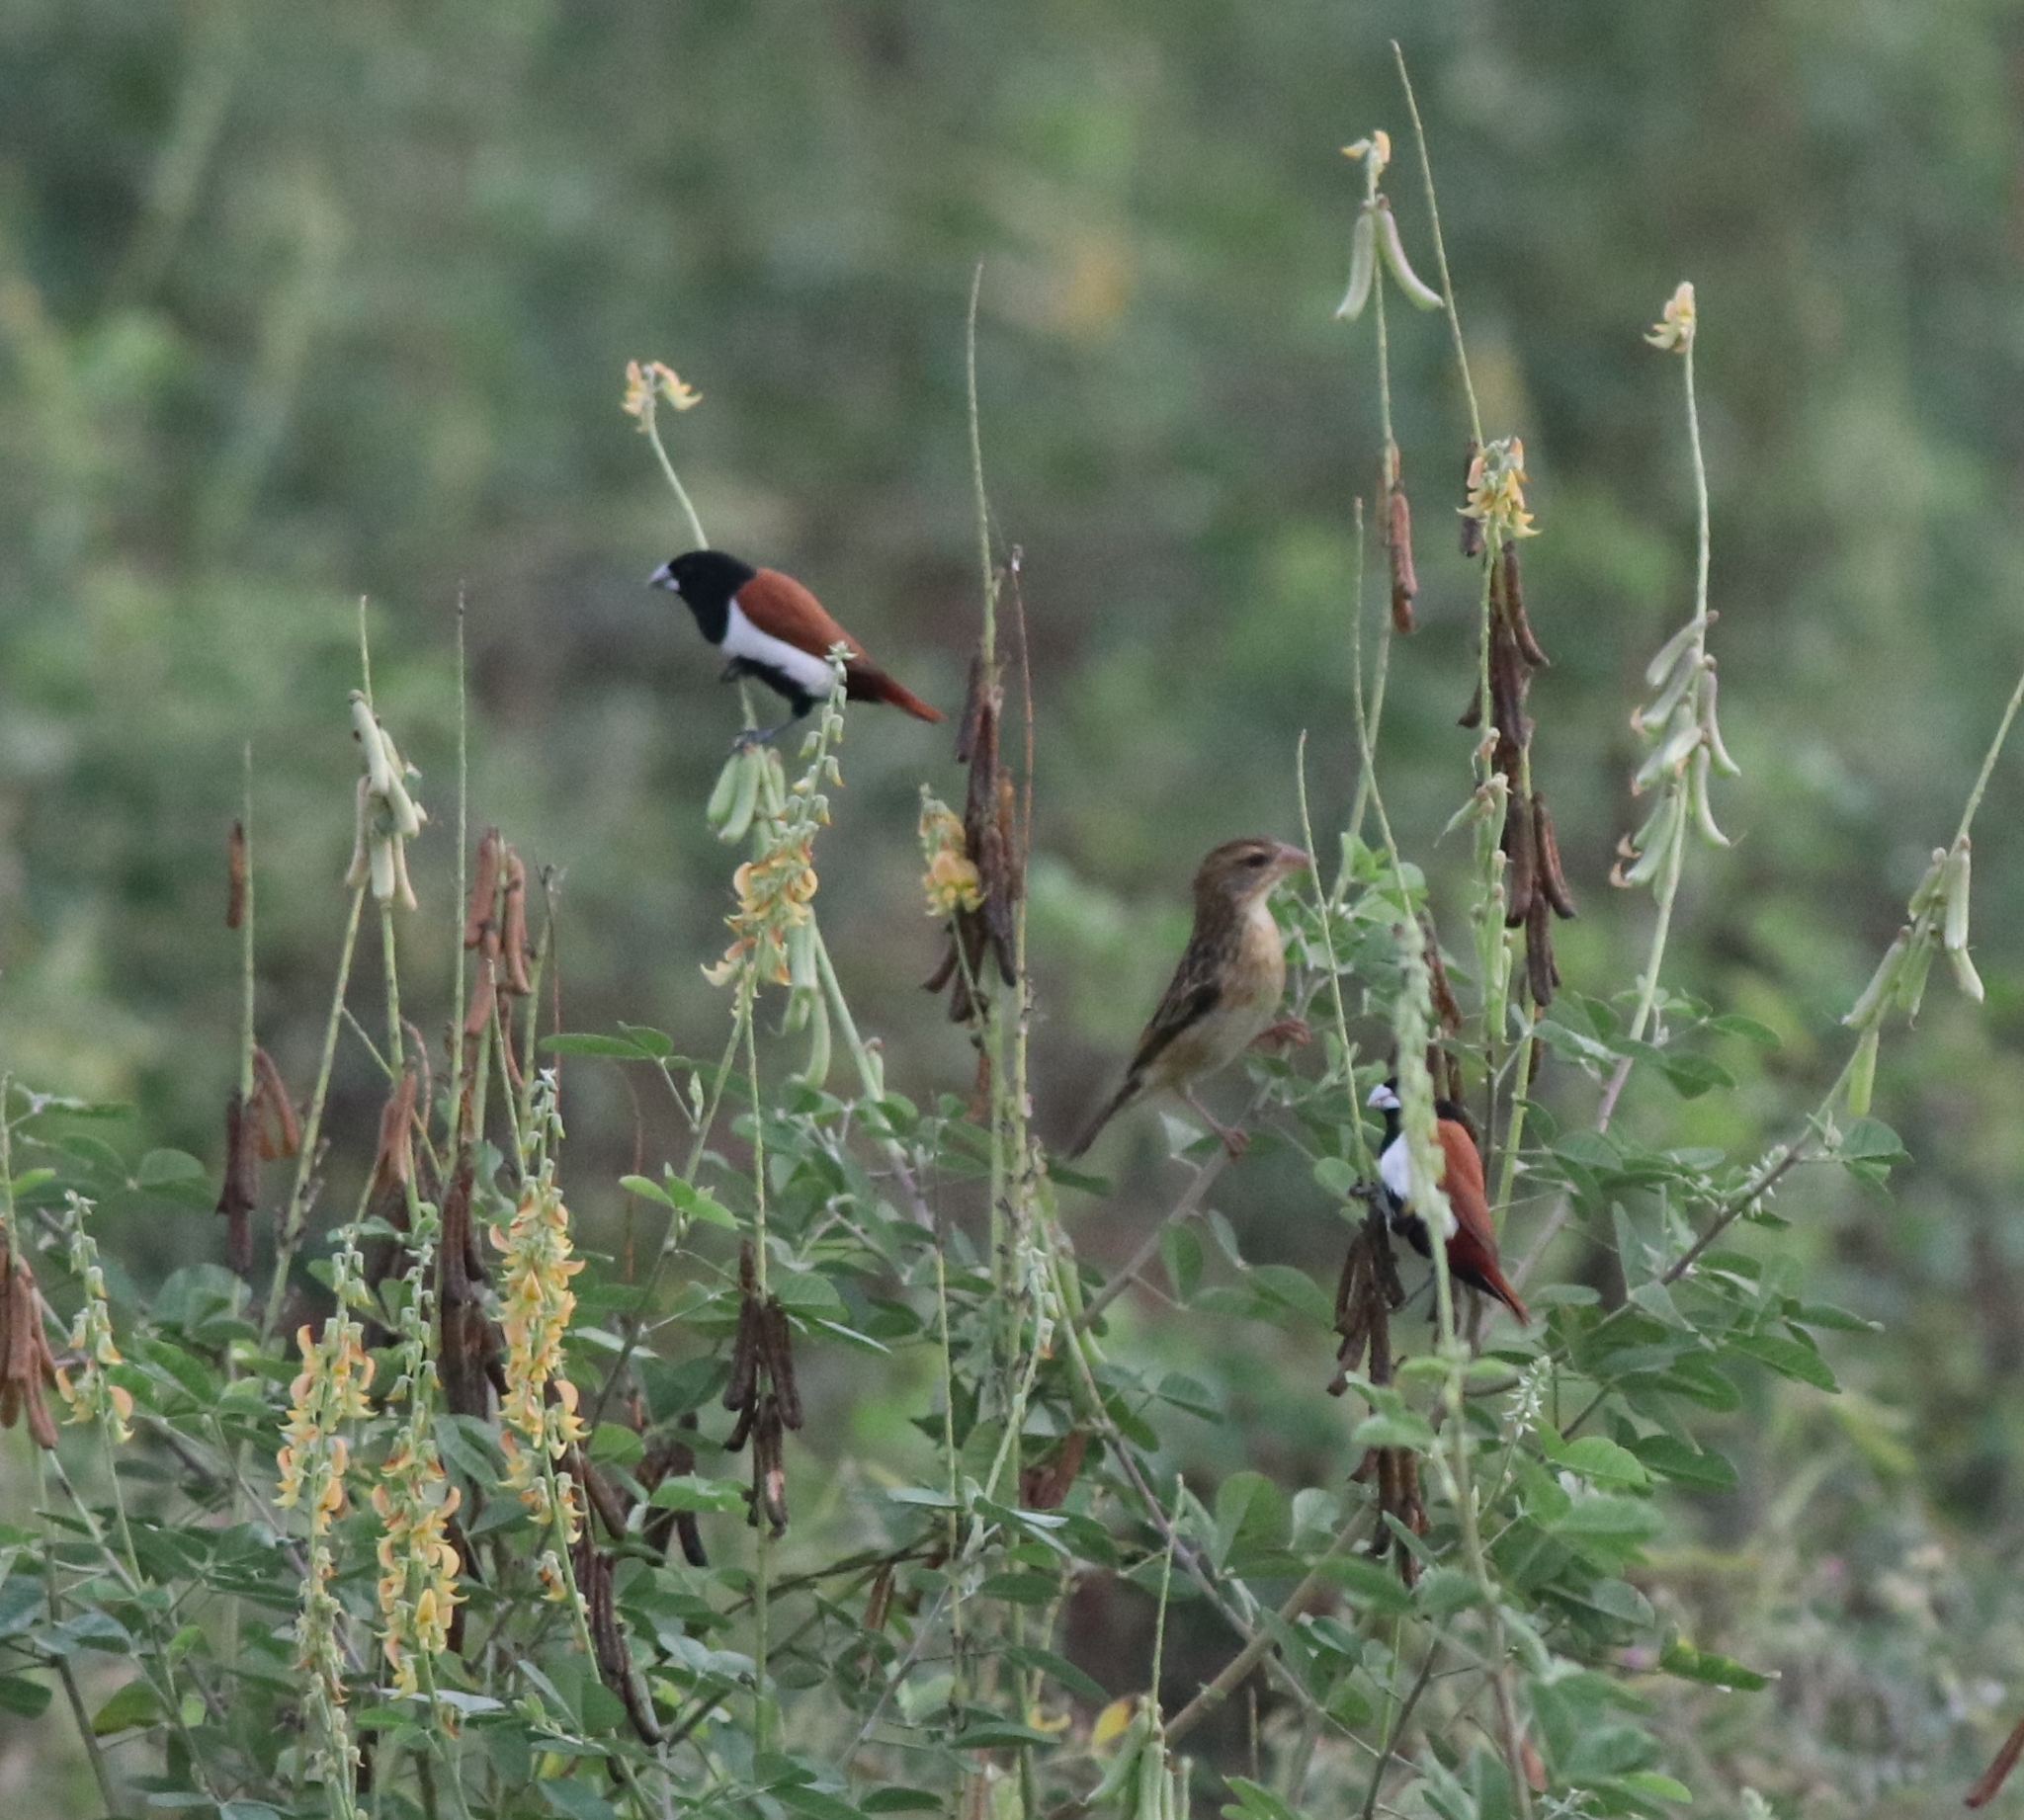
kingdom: Animalia
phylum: Chordata
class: Aves
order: Passeriformes
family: Estrildidae
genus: Lonchura
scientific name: Lonchura malacca
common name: Tricolored munia
